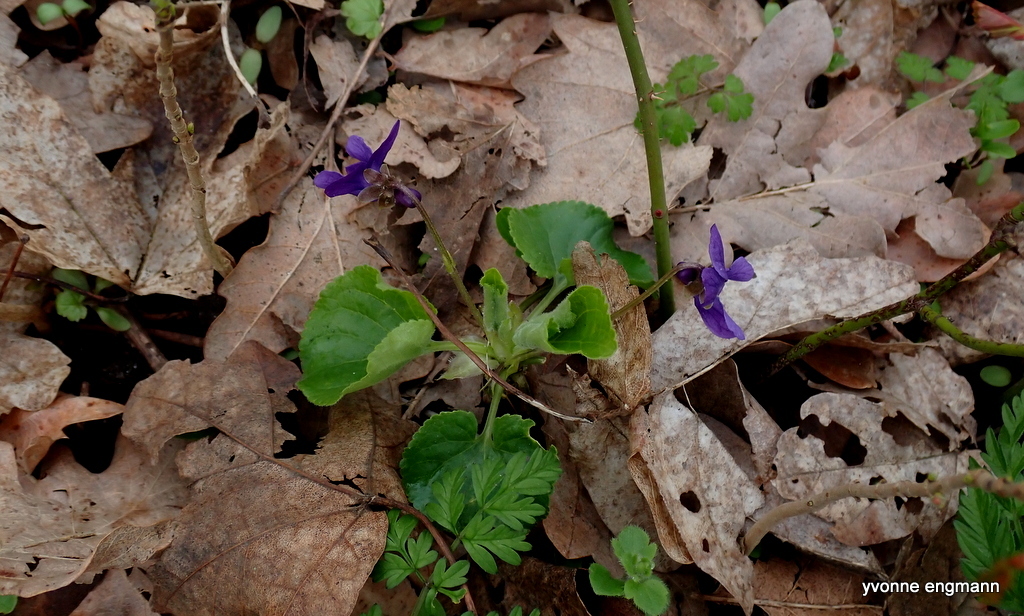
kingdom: Plantae
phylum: Tracheophyta
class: Magnoliopsida
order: Malpighiales
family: Violaceae
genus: Viola
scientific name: Viola odorata
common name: Sweet violet
